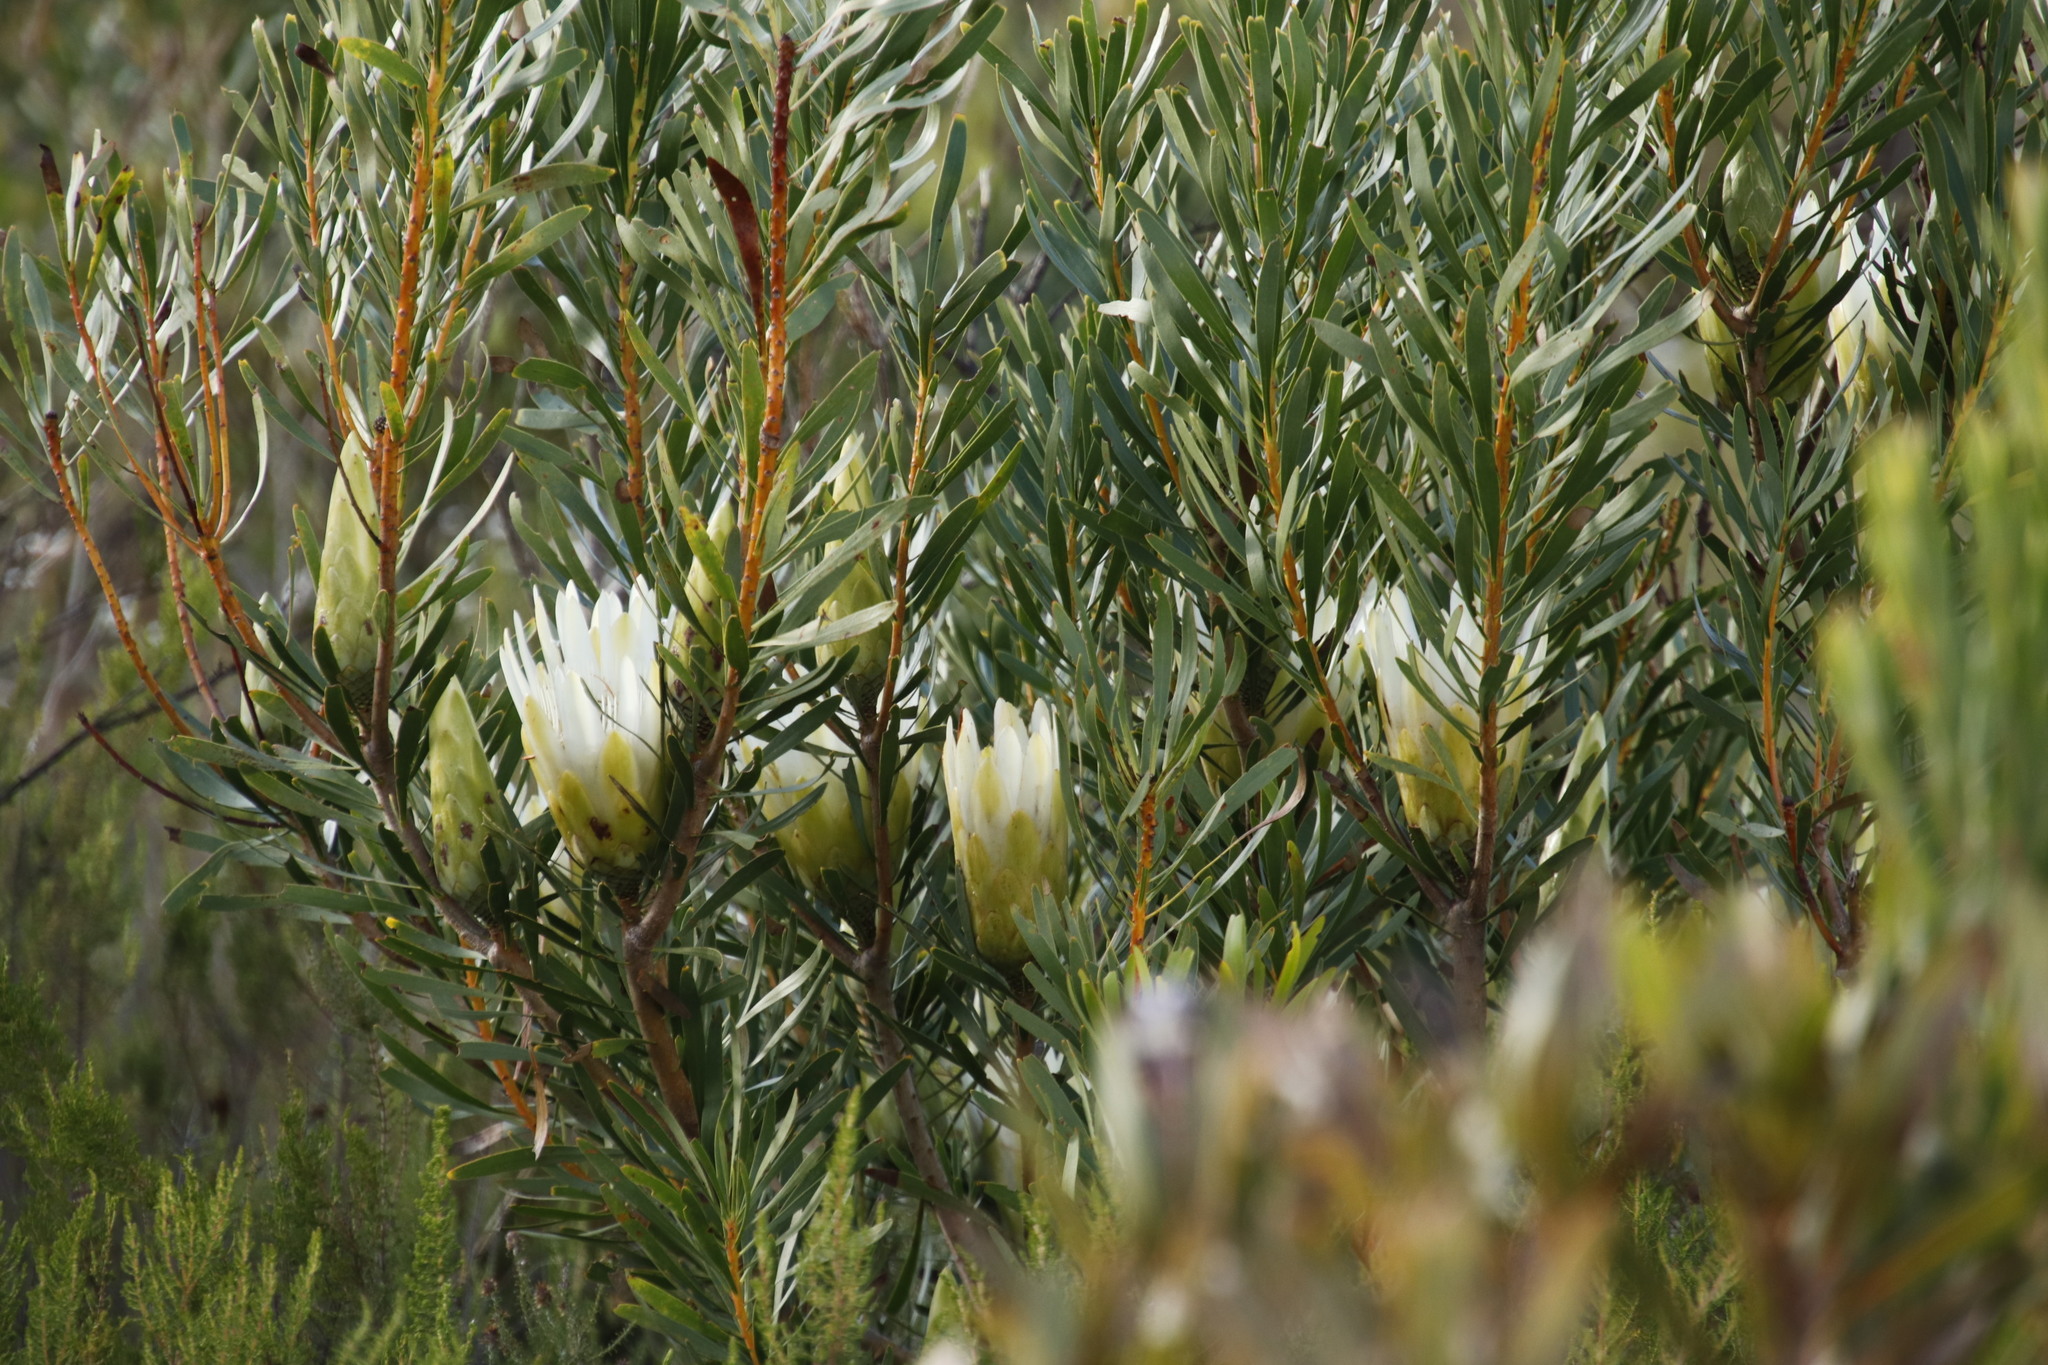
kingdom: Plantae
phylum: Tracheophyta
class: Magnoliopsida
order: Proteales
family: Proteaceae
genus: Protea
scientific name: Protea repens
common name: Sugarbush
